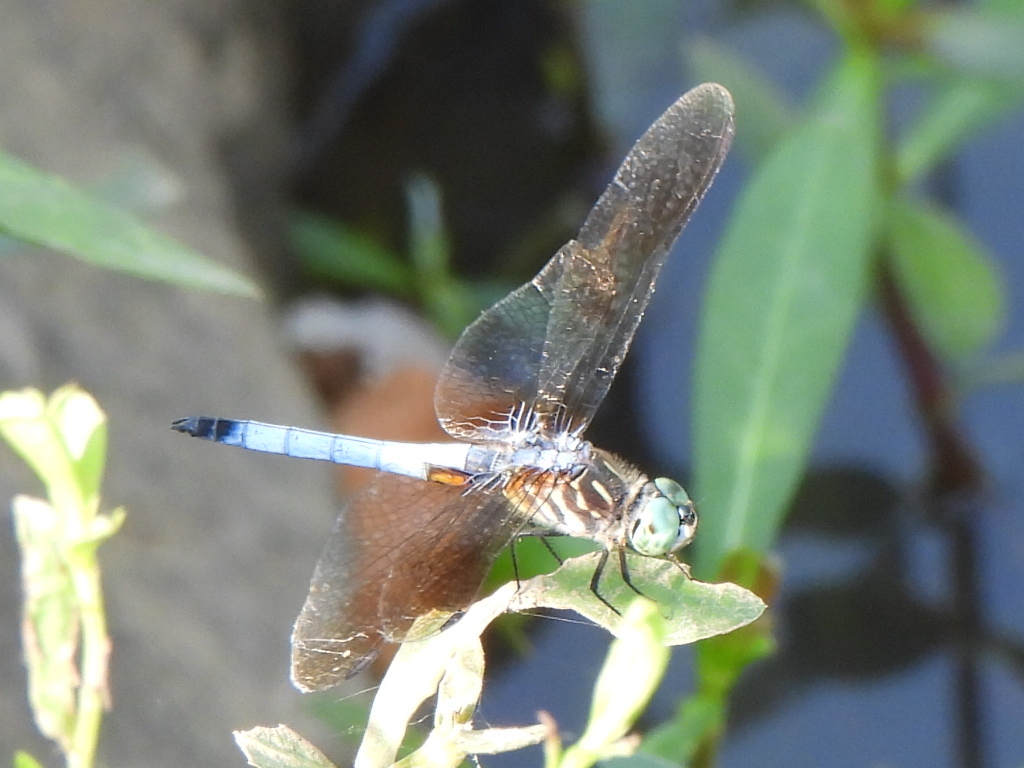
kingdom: Animalia
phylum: Arthropoda
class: Insecta
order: Odonata
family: Libellulidae
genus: Pachydiplax
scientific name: Pachydiplax longipennis
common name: Blue dasher
